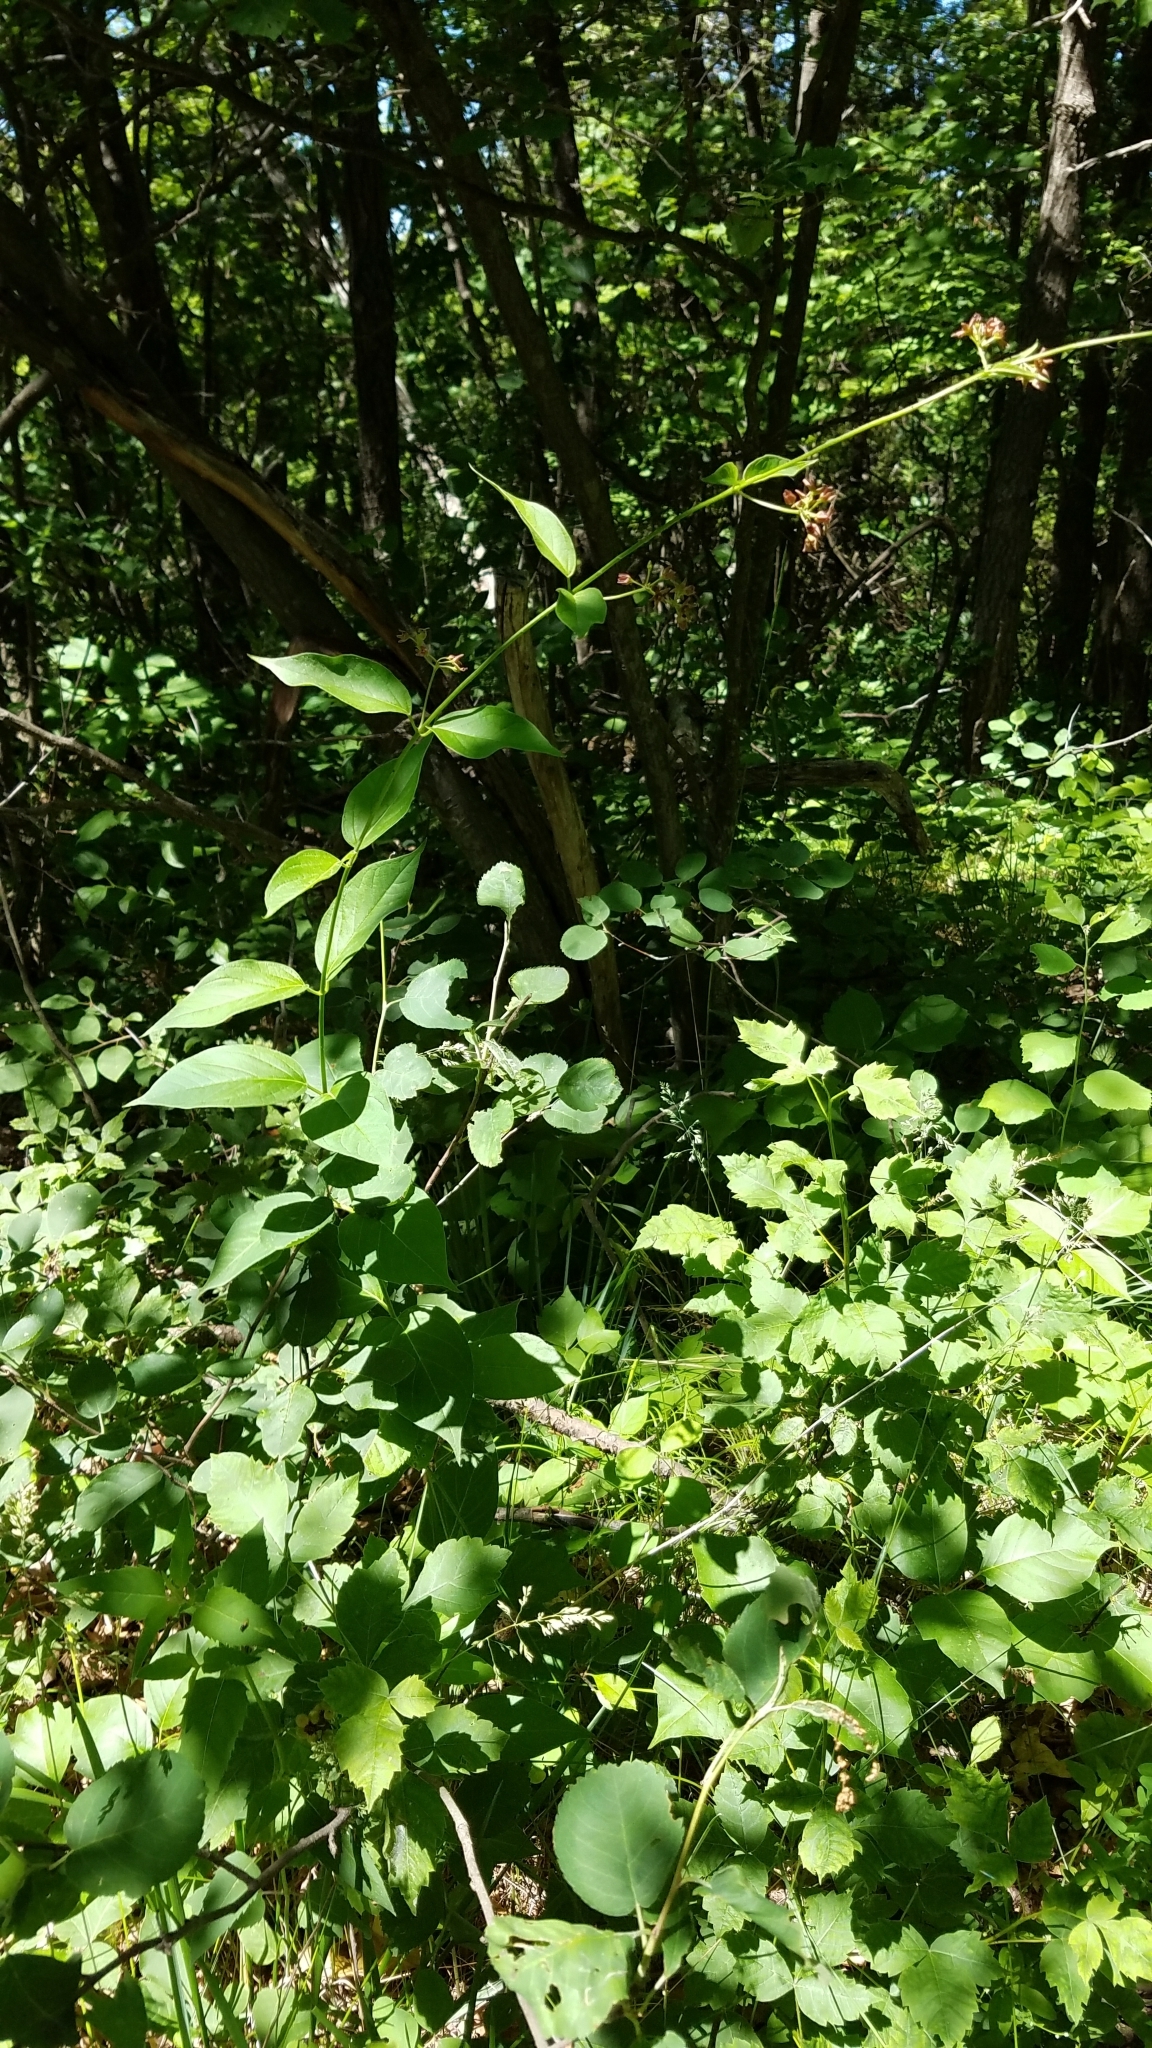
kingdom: Plantae
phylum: Tracheophyta
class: Magnoliopsida
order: Gentianales
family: Apocynaceae
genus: Vincetoxicum
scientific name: Vincetoxicum rossicum
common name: Dog-strangling vine
